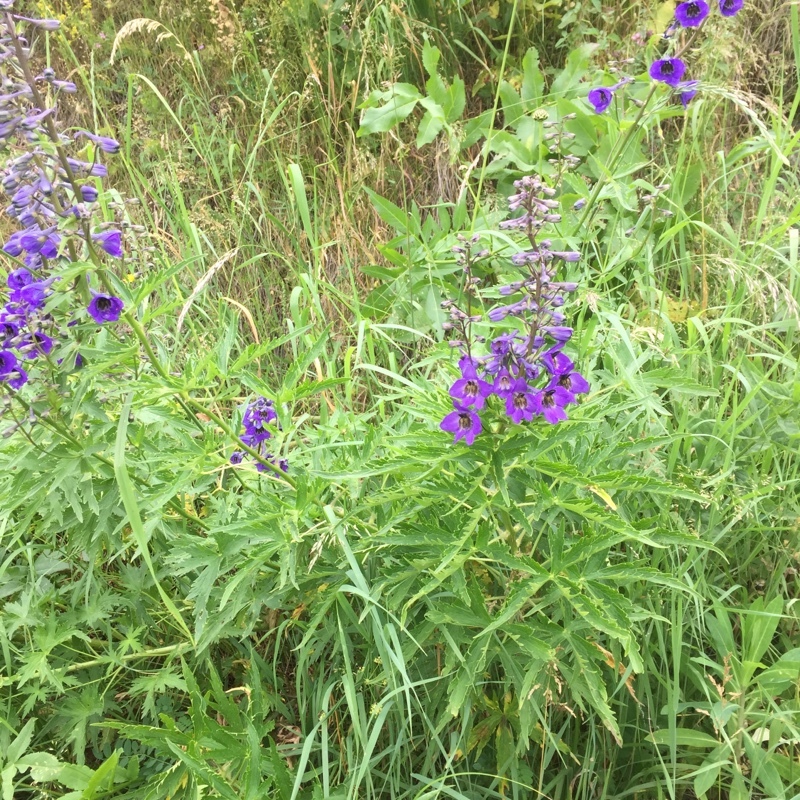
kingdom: Plantae
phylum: Tracheophyta
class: Magnoliopsida
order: Ranunculales
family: Ranunculaceae
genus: Aconitum
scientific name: Aconitum lycoctonum
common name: Wolf's-bane
